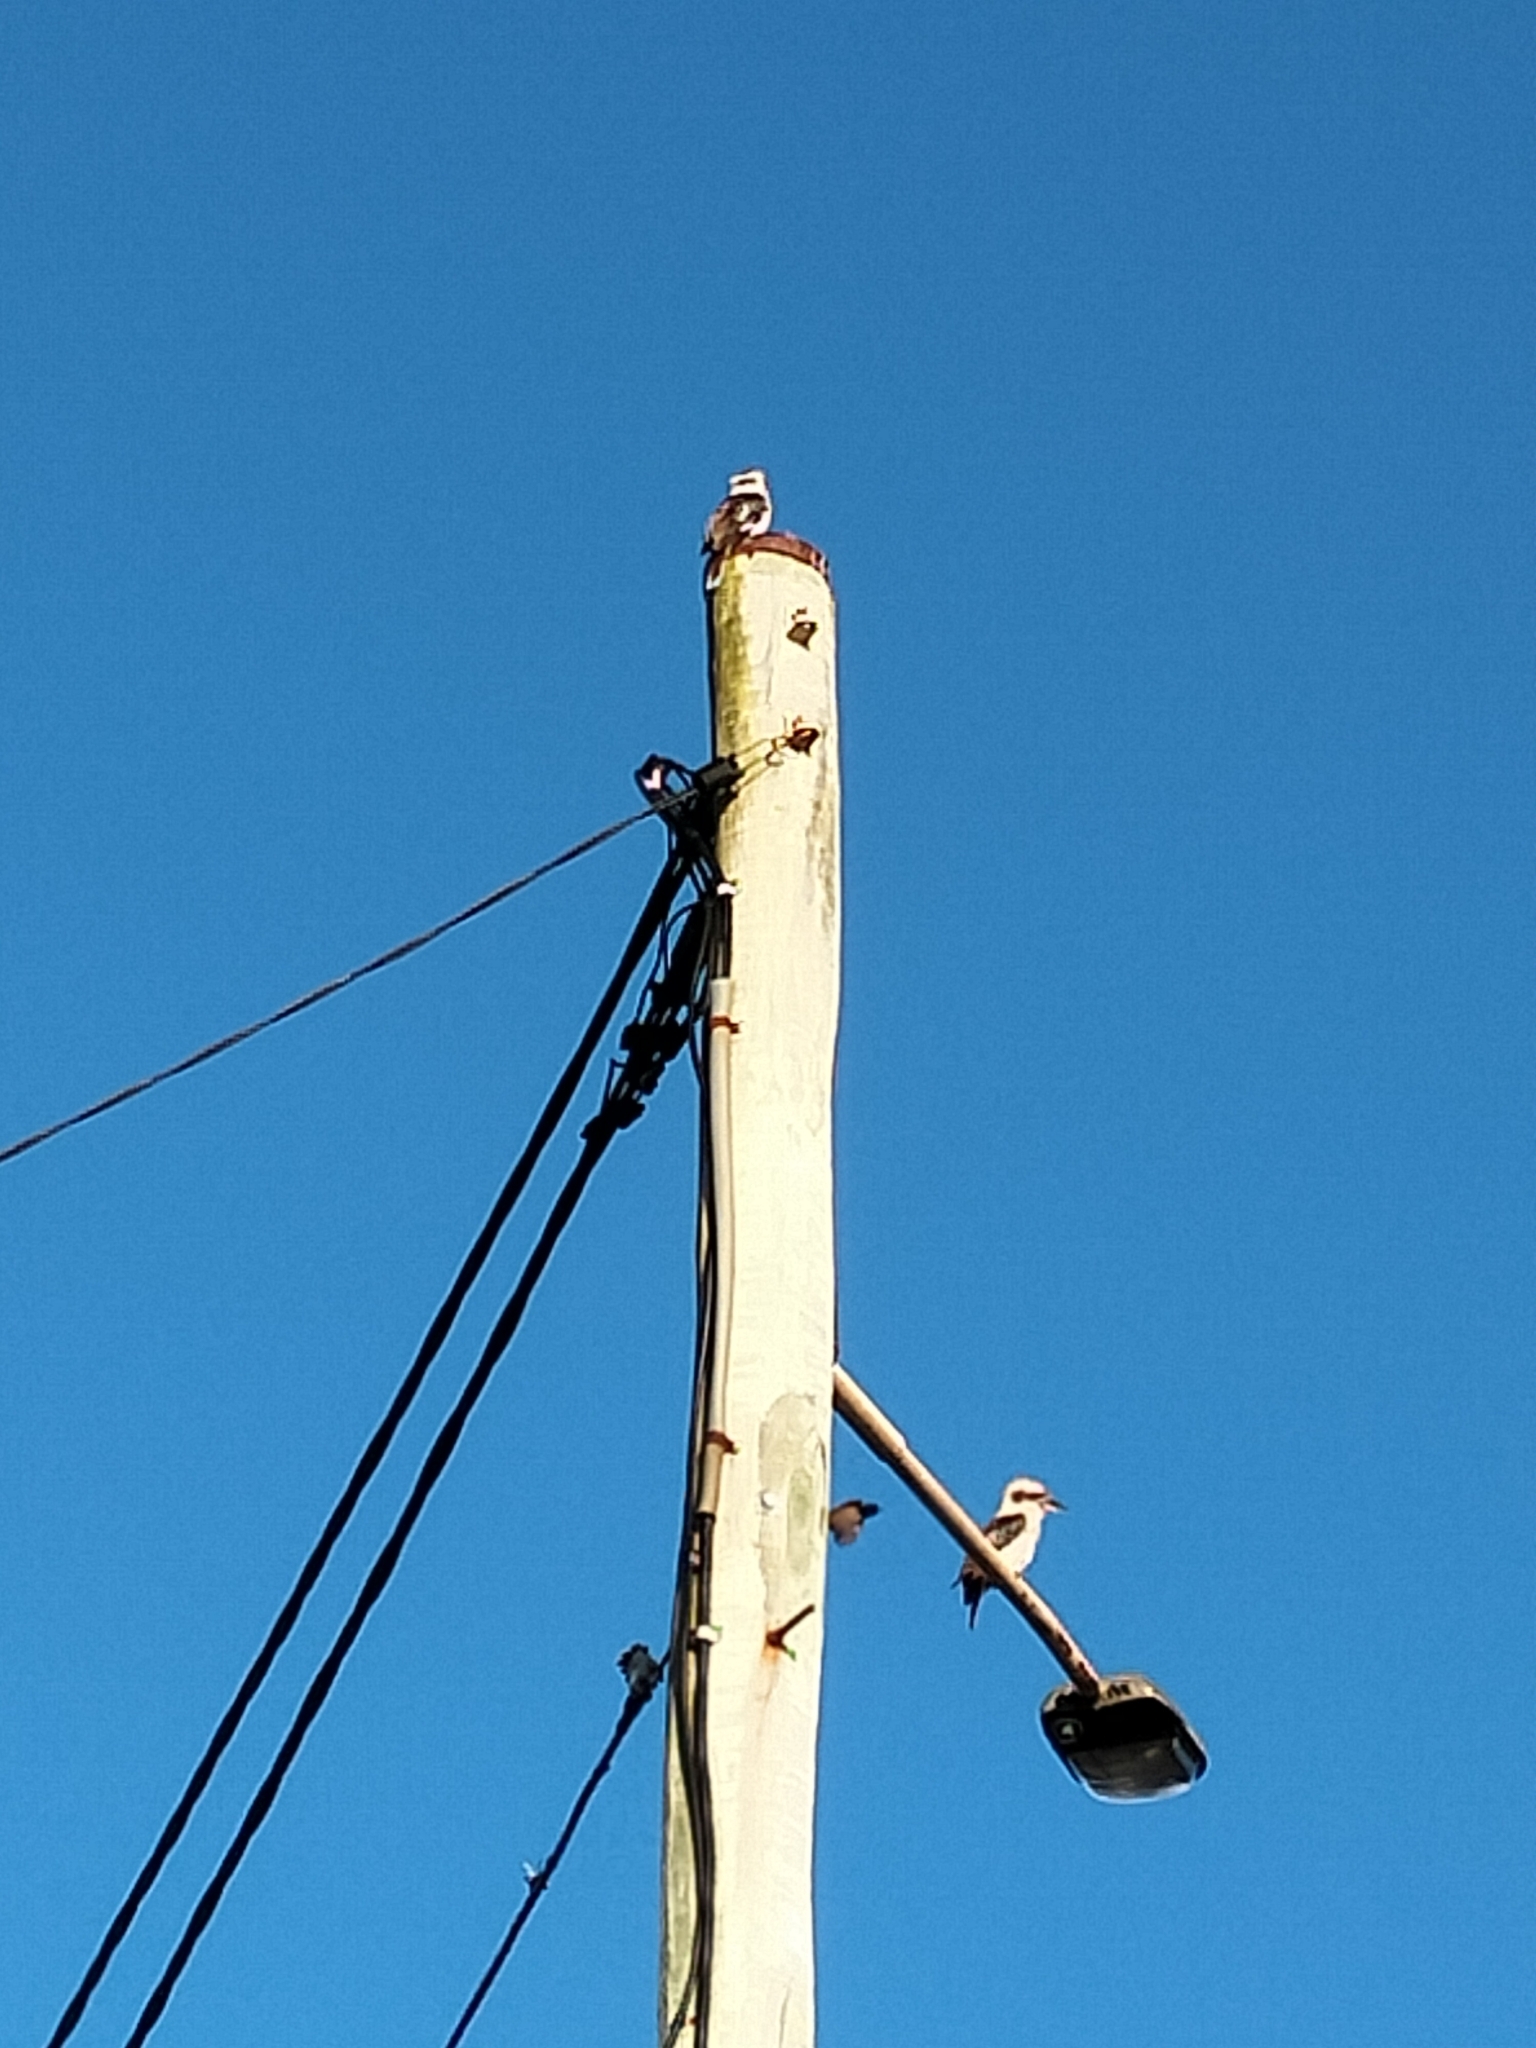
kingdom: Animalia
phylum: Chordata
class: Aves
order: Coraciiformes
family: Alcedinidae
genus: Dacelo
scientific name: Dacelo novaeguineae
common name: Laughing kookaburra
